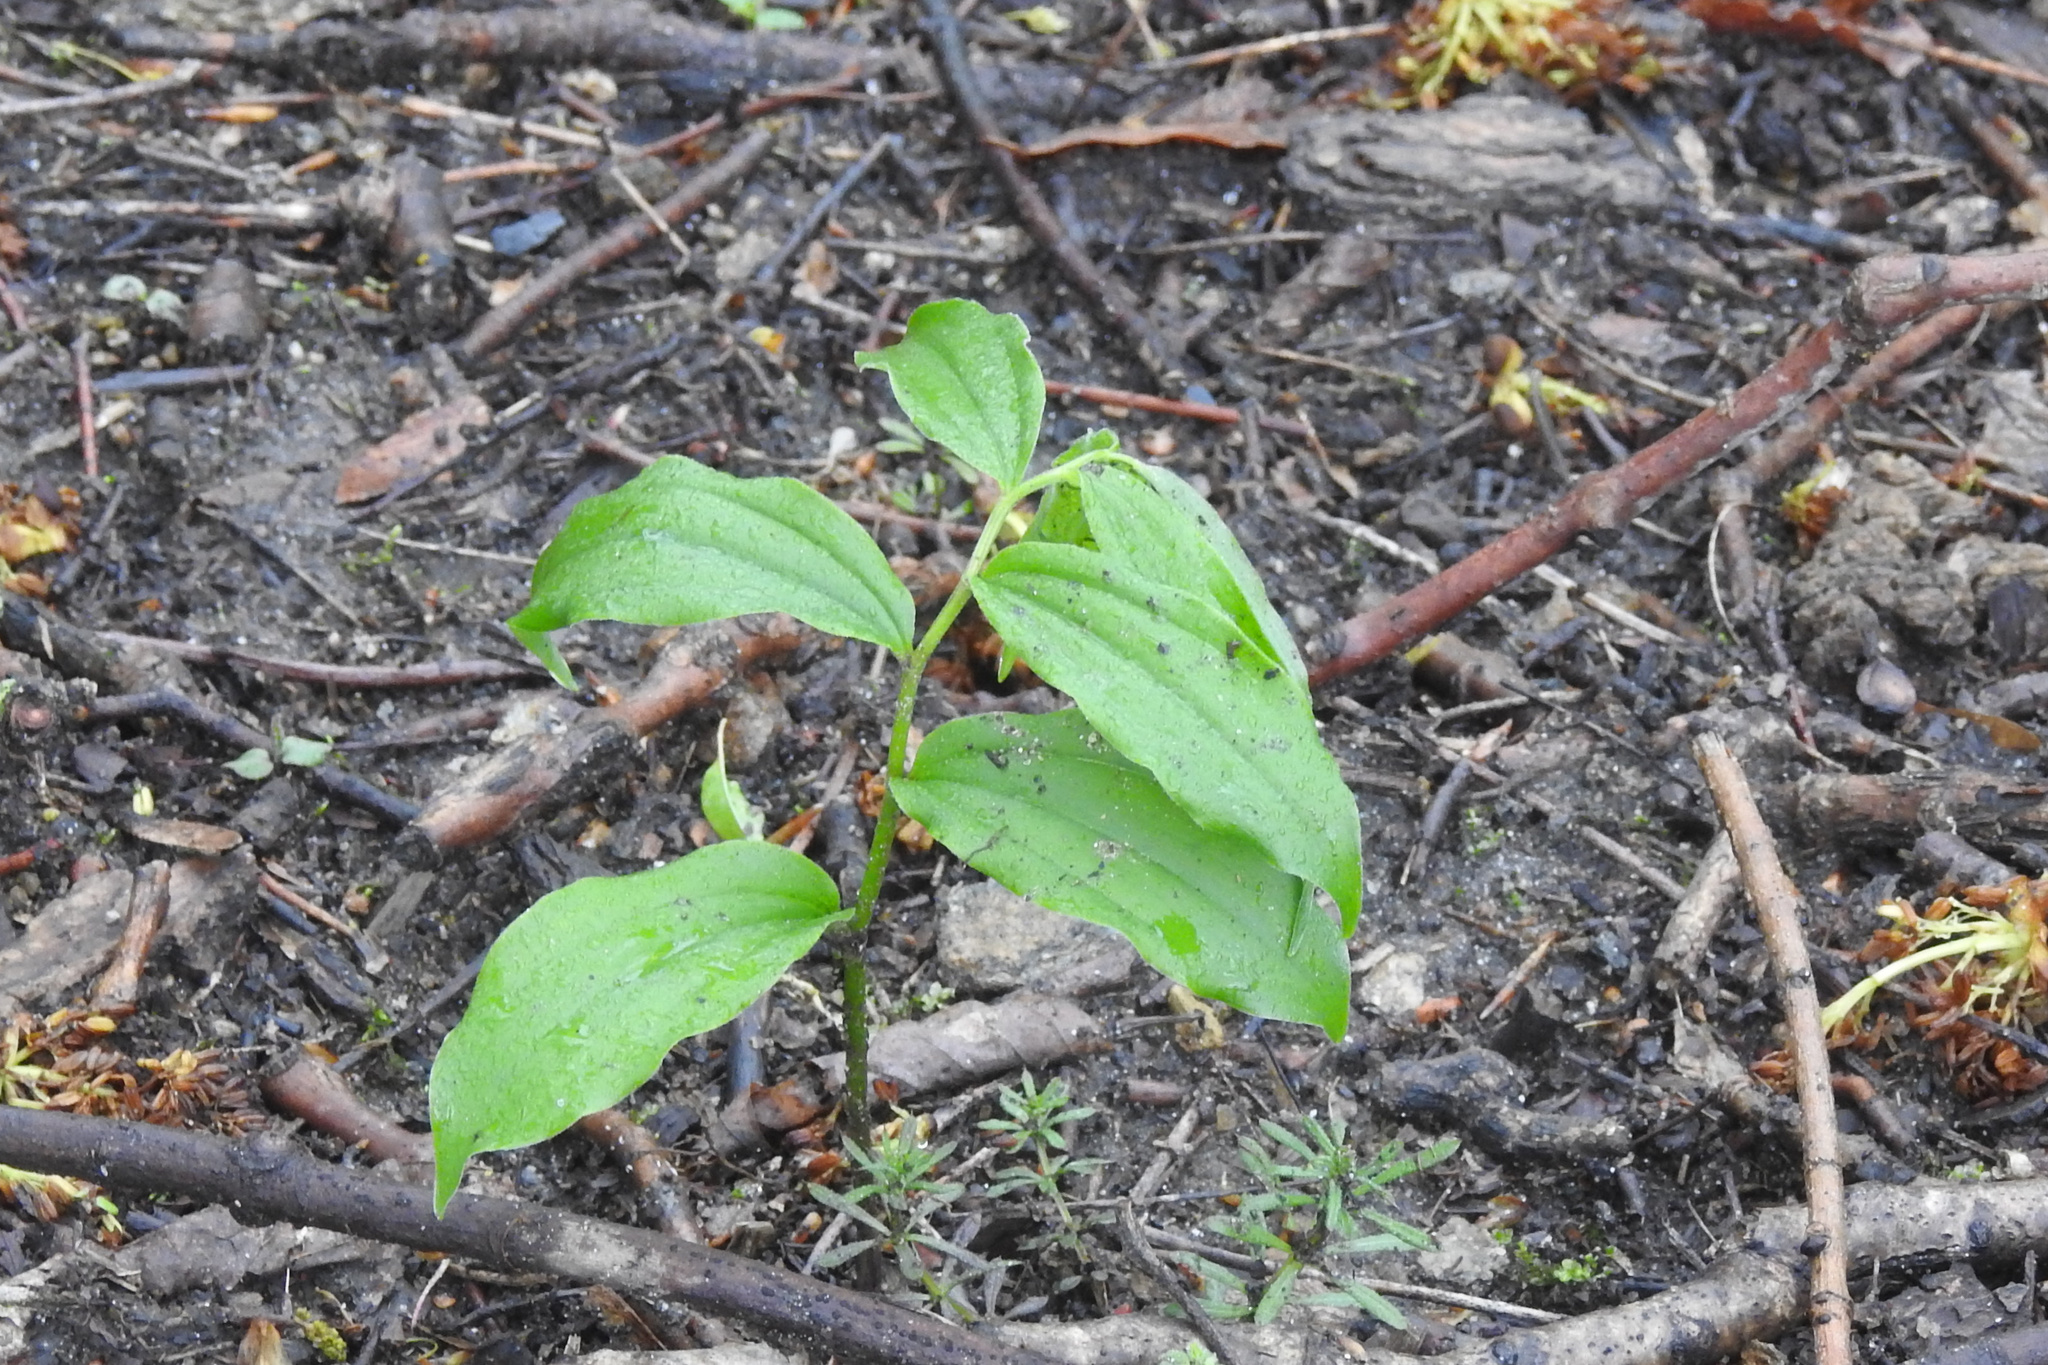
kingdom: Plantae
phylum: Tracheophyta
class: Liliopsida
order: Asparagales
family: Asparagaceae
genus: Maianthemum
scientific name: Maianthemum racemosum
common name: False spikenard
